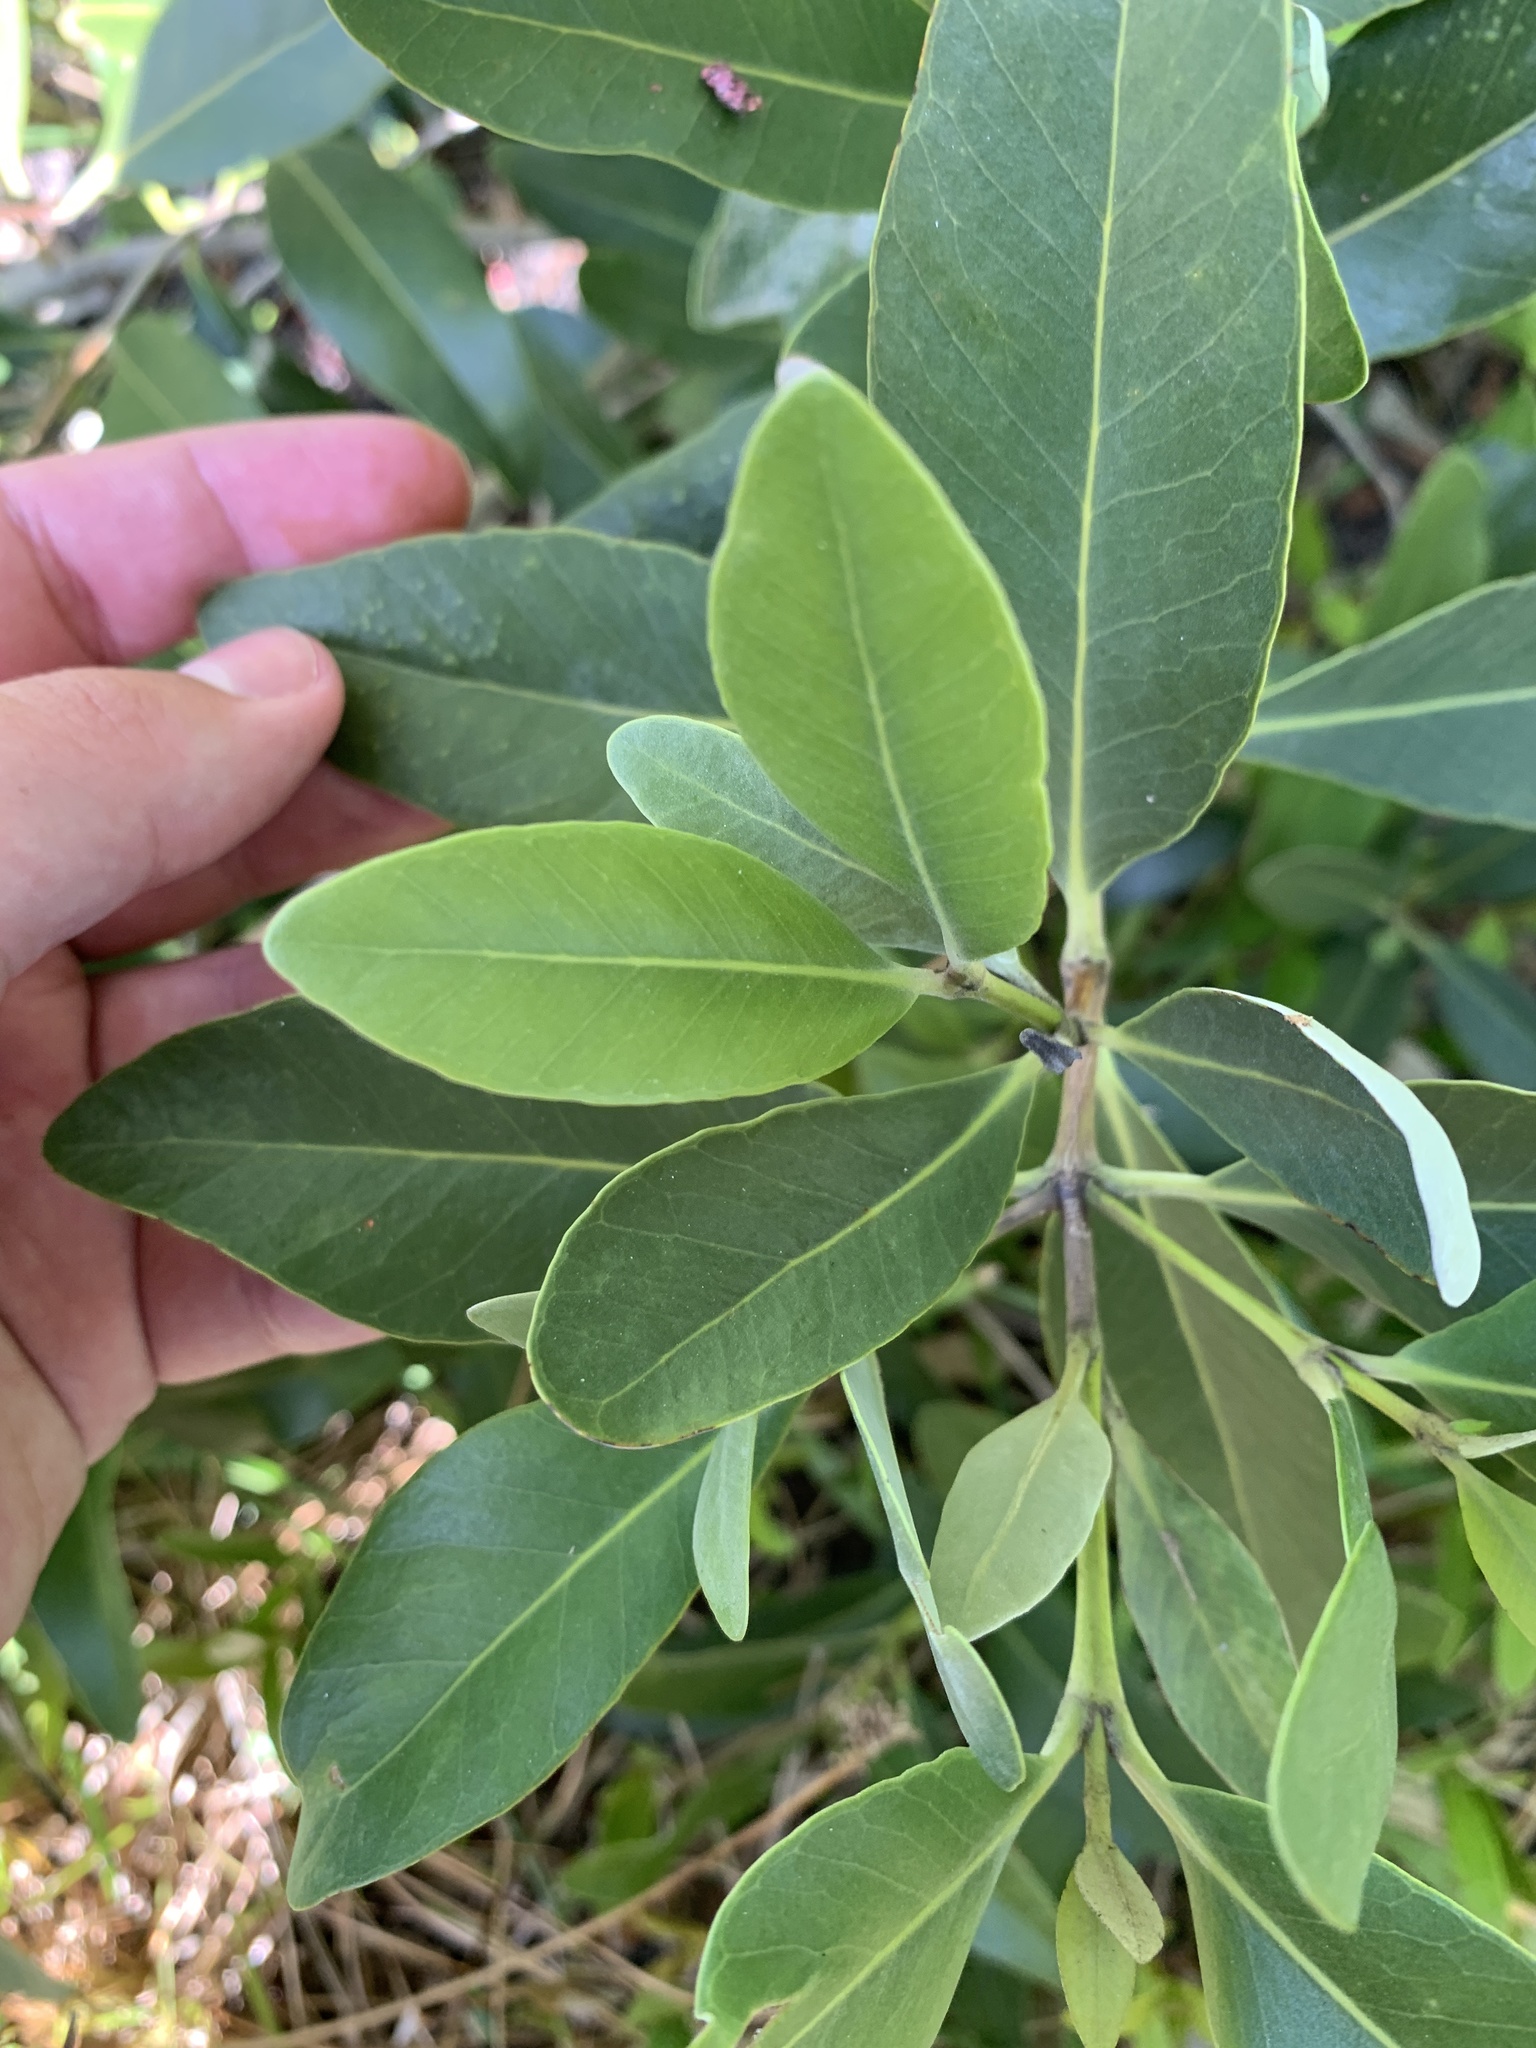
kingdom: Plantae
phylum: Tracheophyta
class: Magnoliopsida
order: Lamiales
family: Acanthaceae
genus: Avicennia
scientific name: Avicennia germinans
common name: Black mangrove
